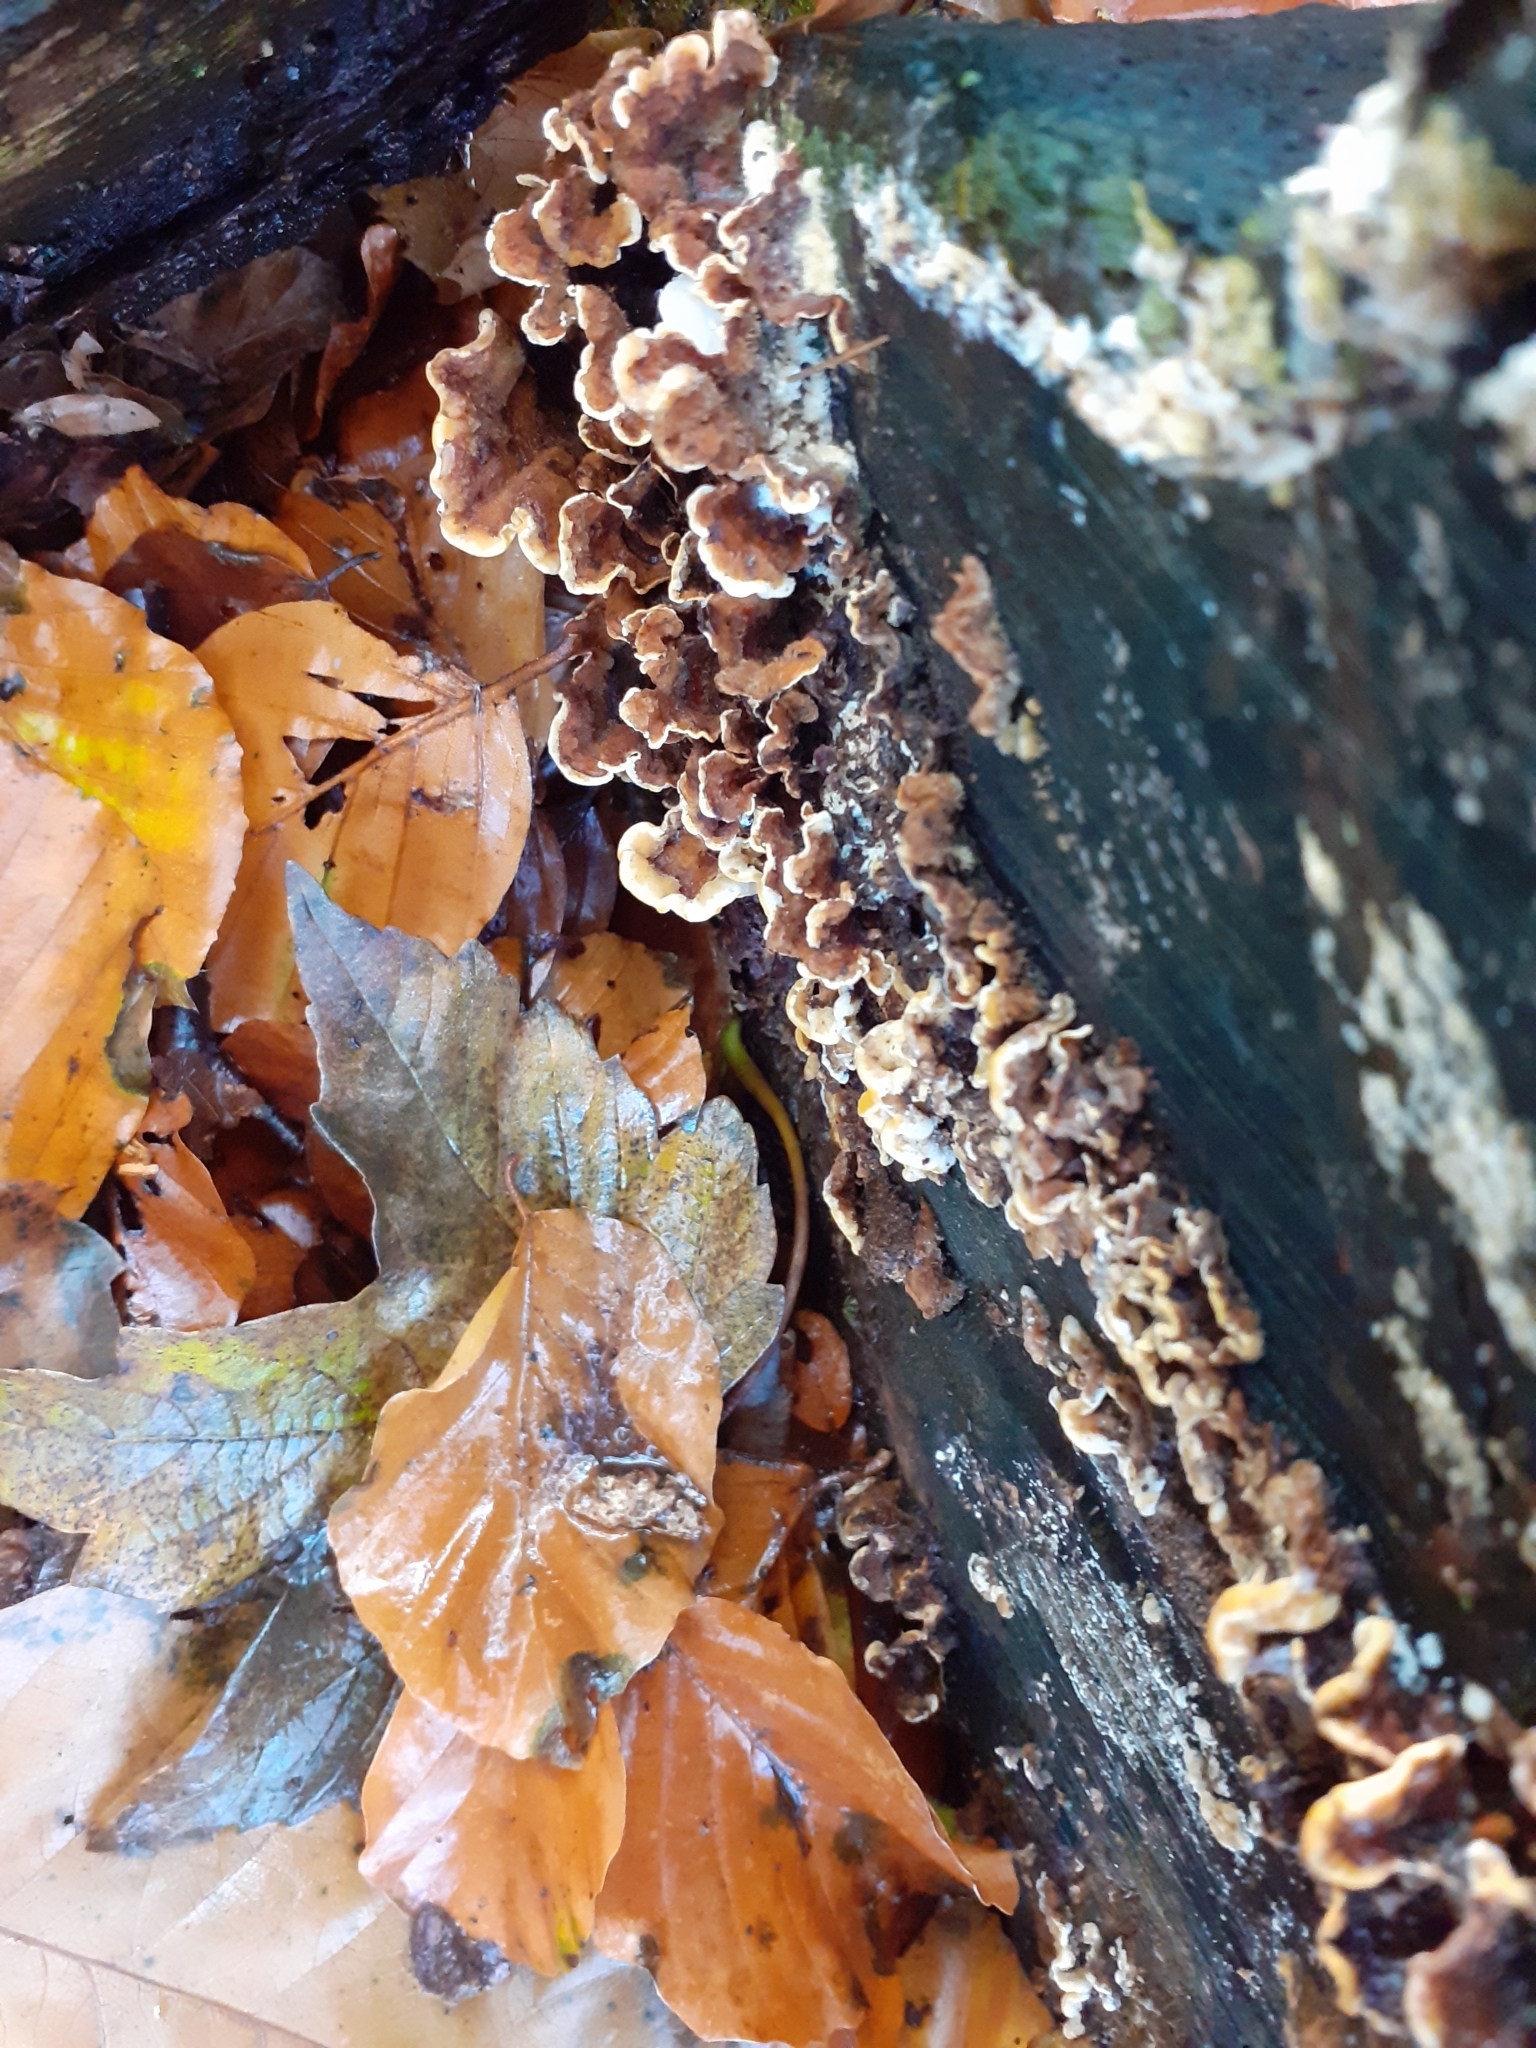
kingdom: Fungi
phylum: Basidiomycota
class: Agaricomycetes
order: Russulales
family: Stereaceae
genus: Stereum
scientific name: Stereum hirsutum
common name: Hairy curtain crust
